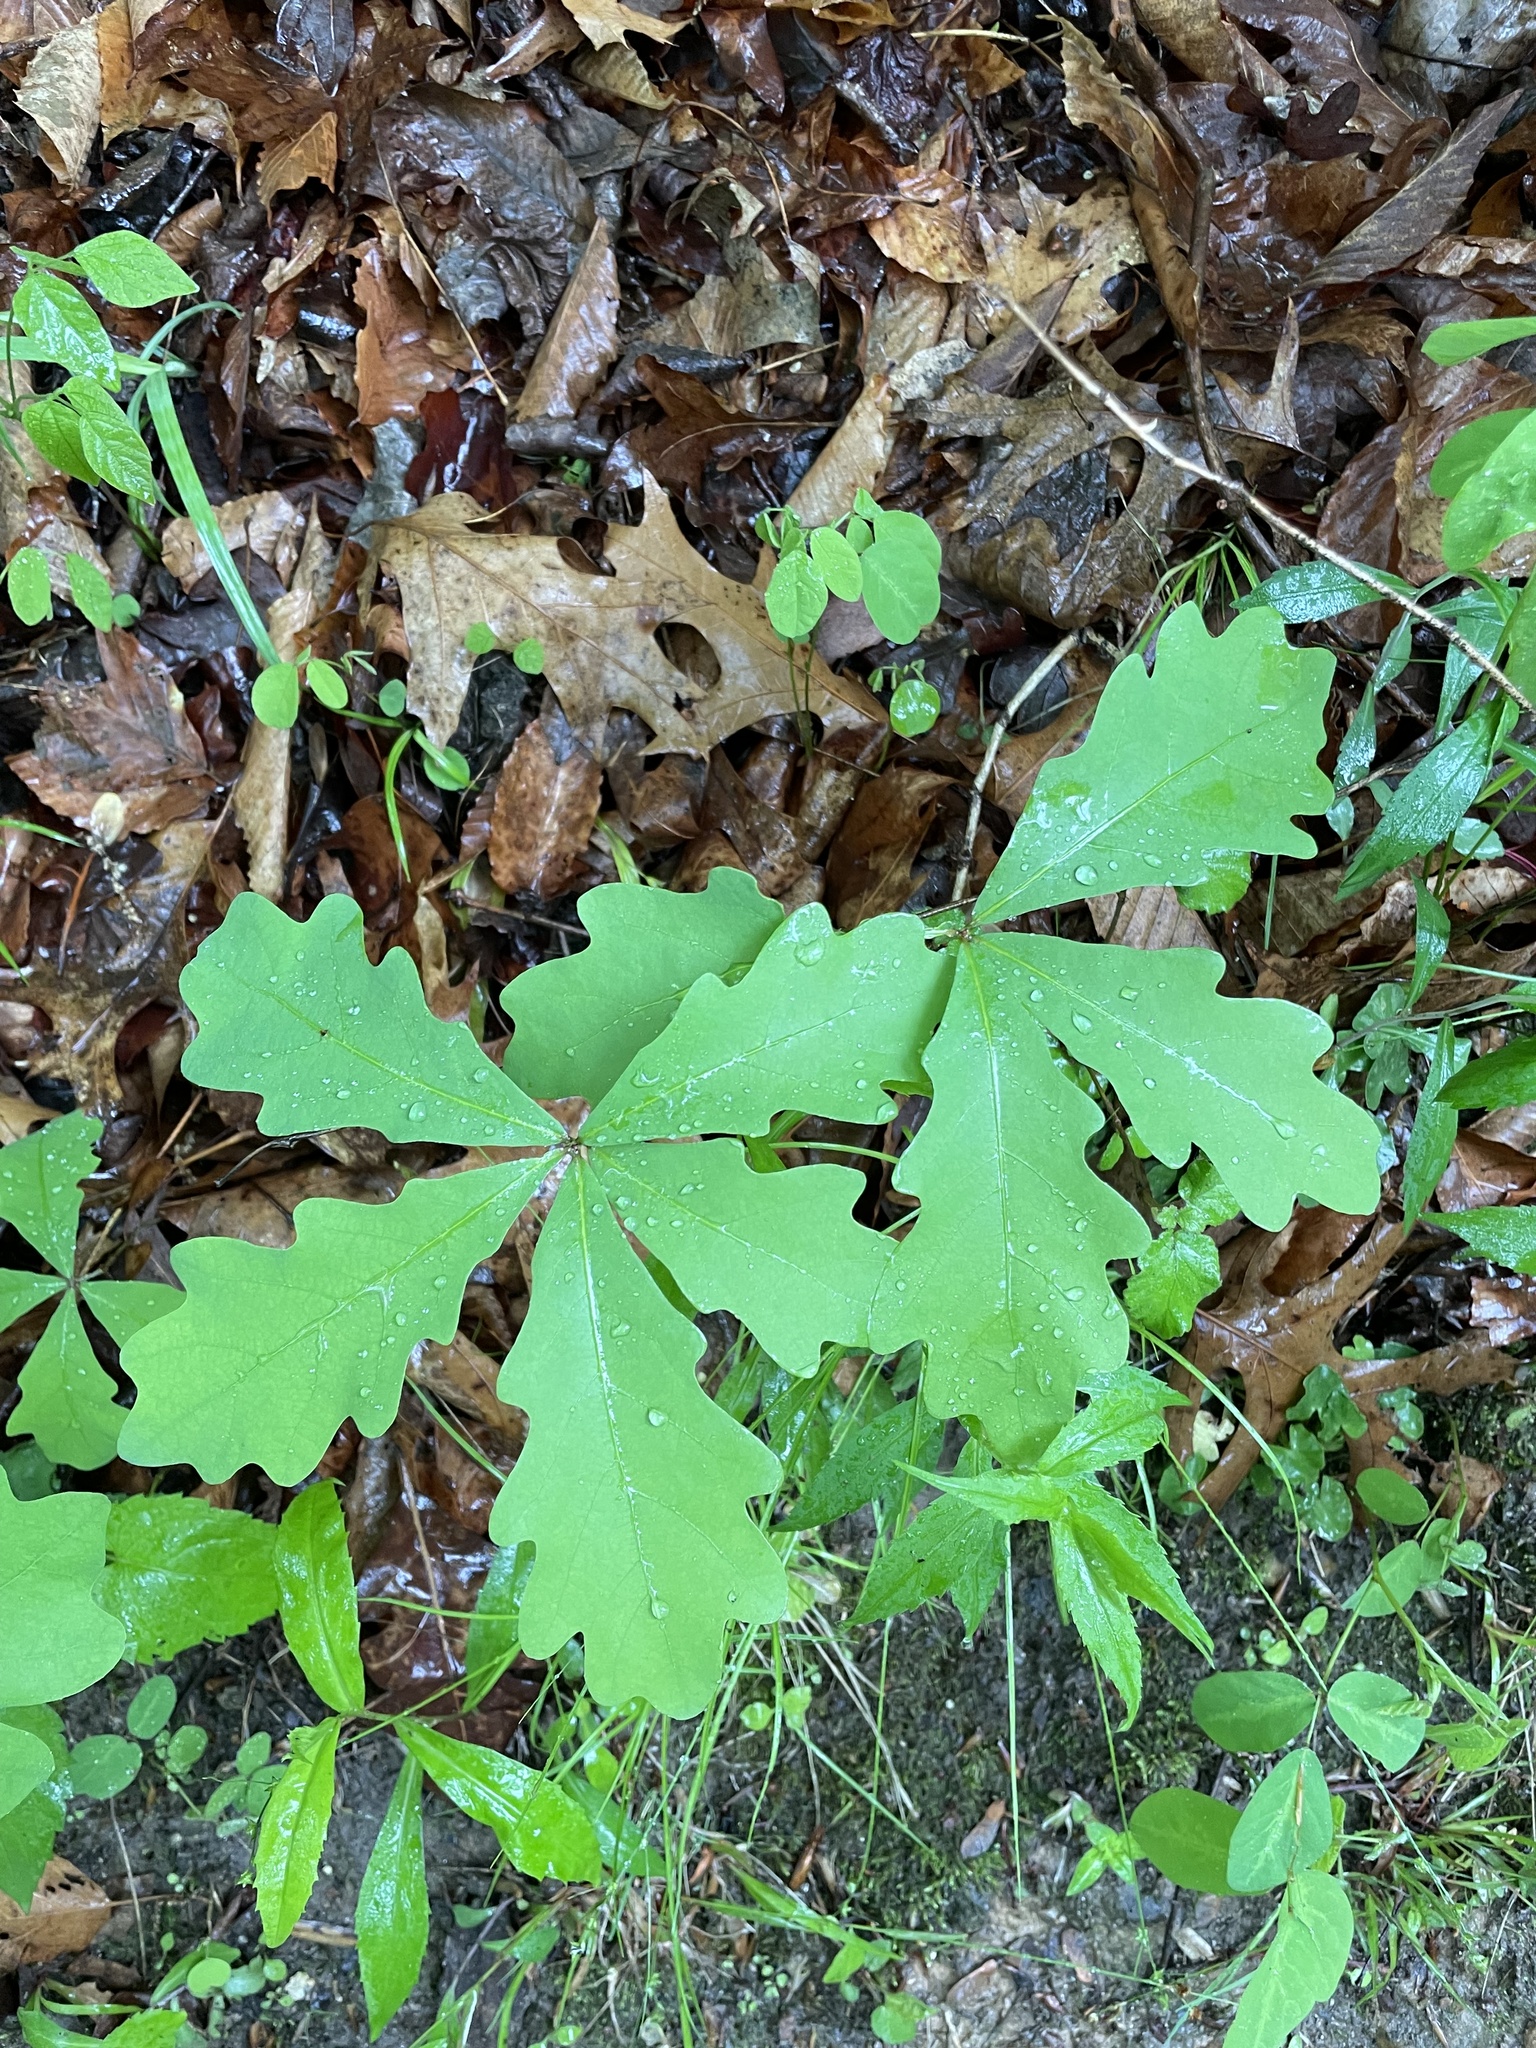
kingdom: Plantae
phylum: Tracheophyta
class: Magnoliopsida
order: Fagales
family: Fagaceae
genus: Quercus
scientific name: Quercus alba
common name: White oak
